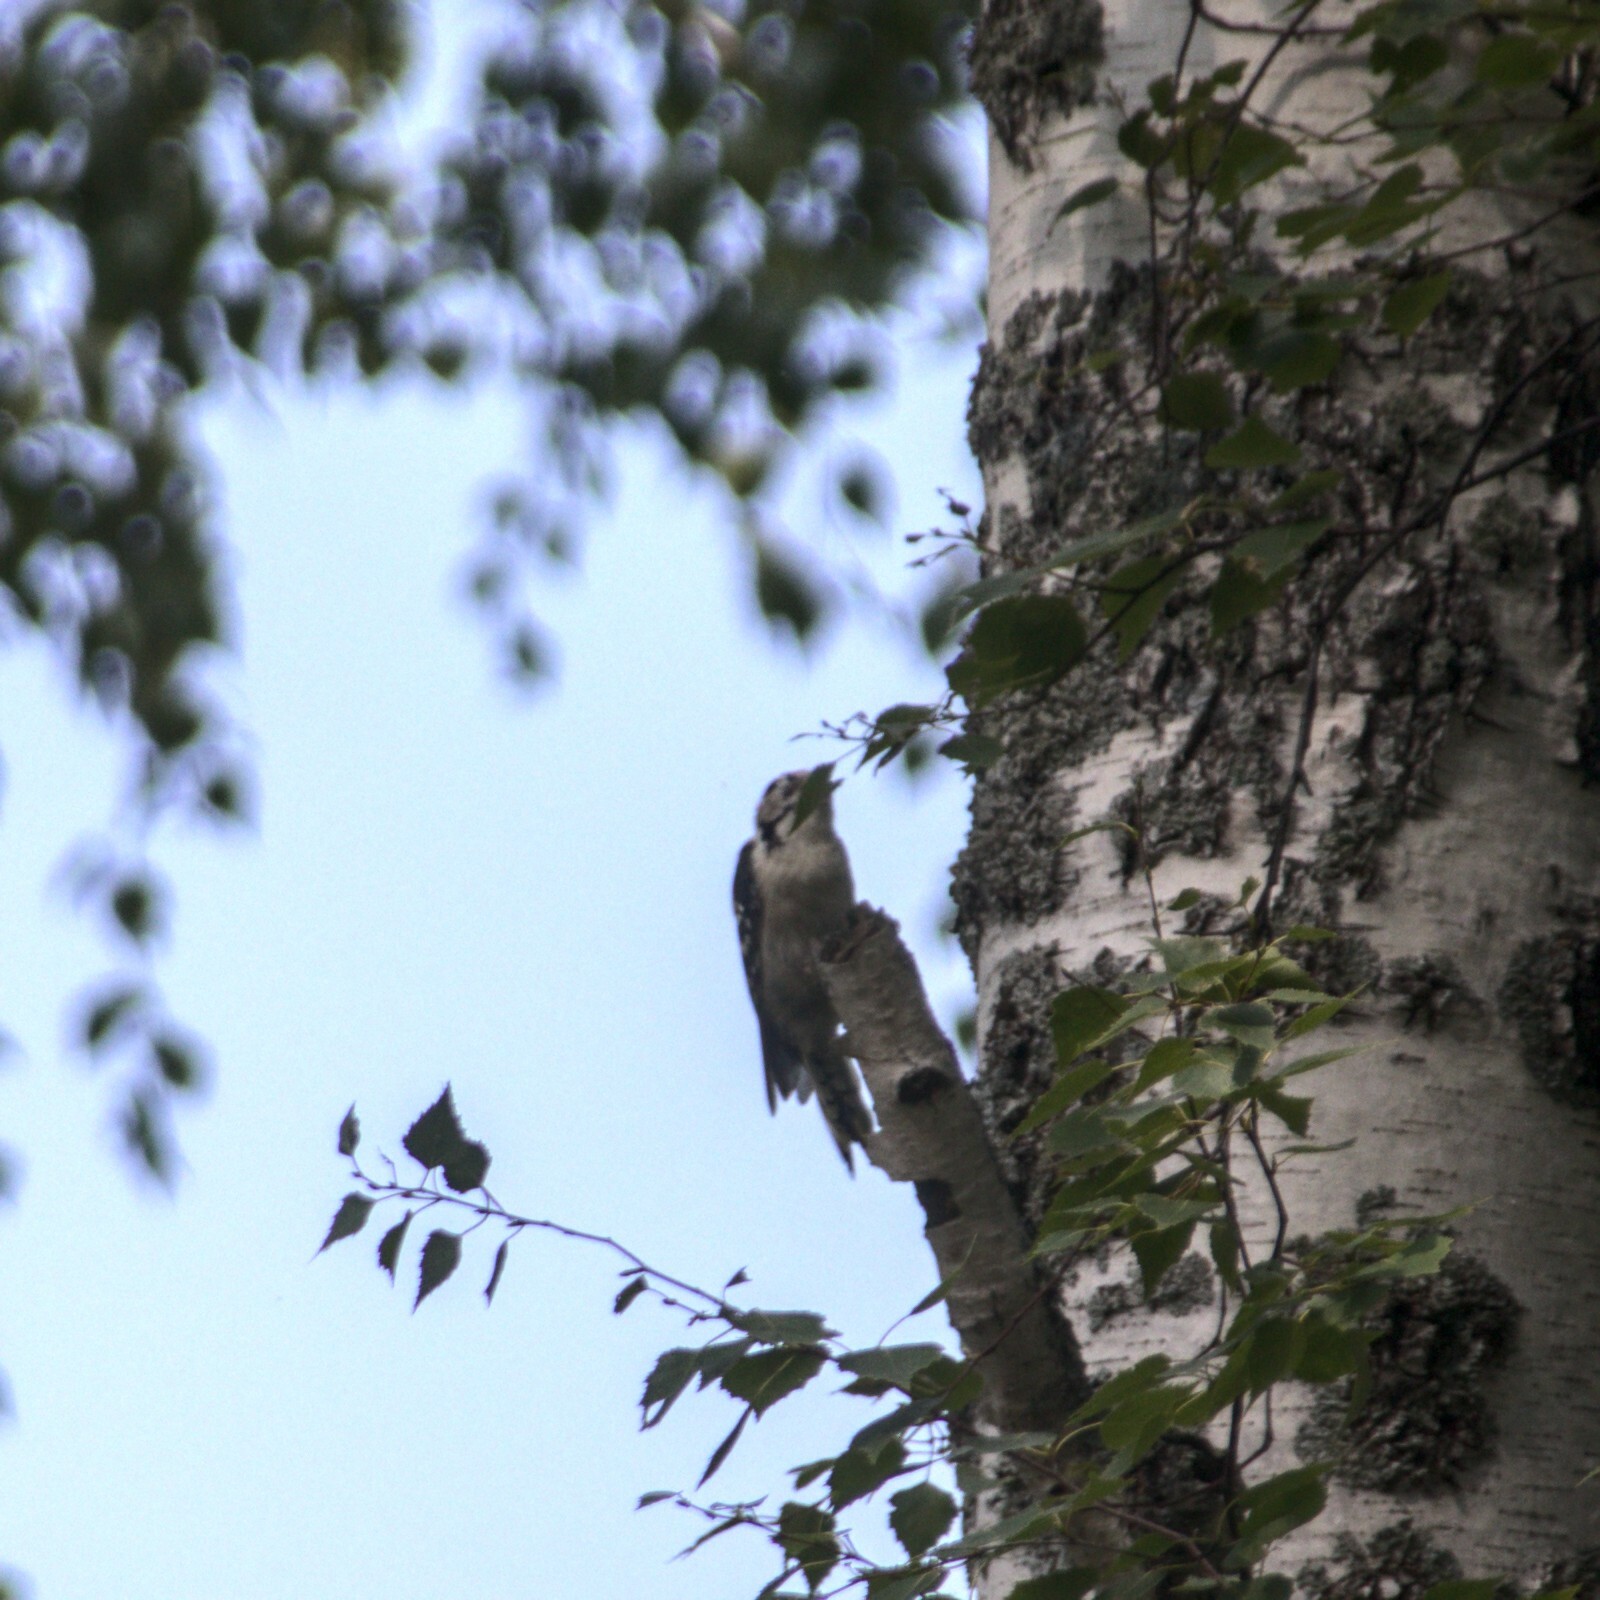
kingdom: Animalia
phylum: Chordata
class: Aves
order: Piciformes
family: Picidae
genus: Dryobates
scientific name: Dryobates minor
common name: Lesser spotted woodpecker
